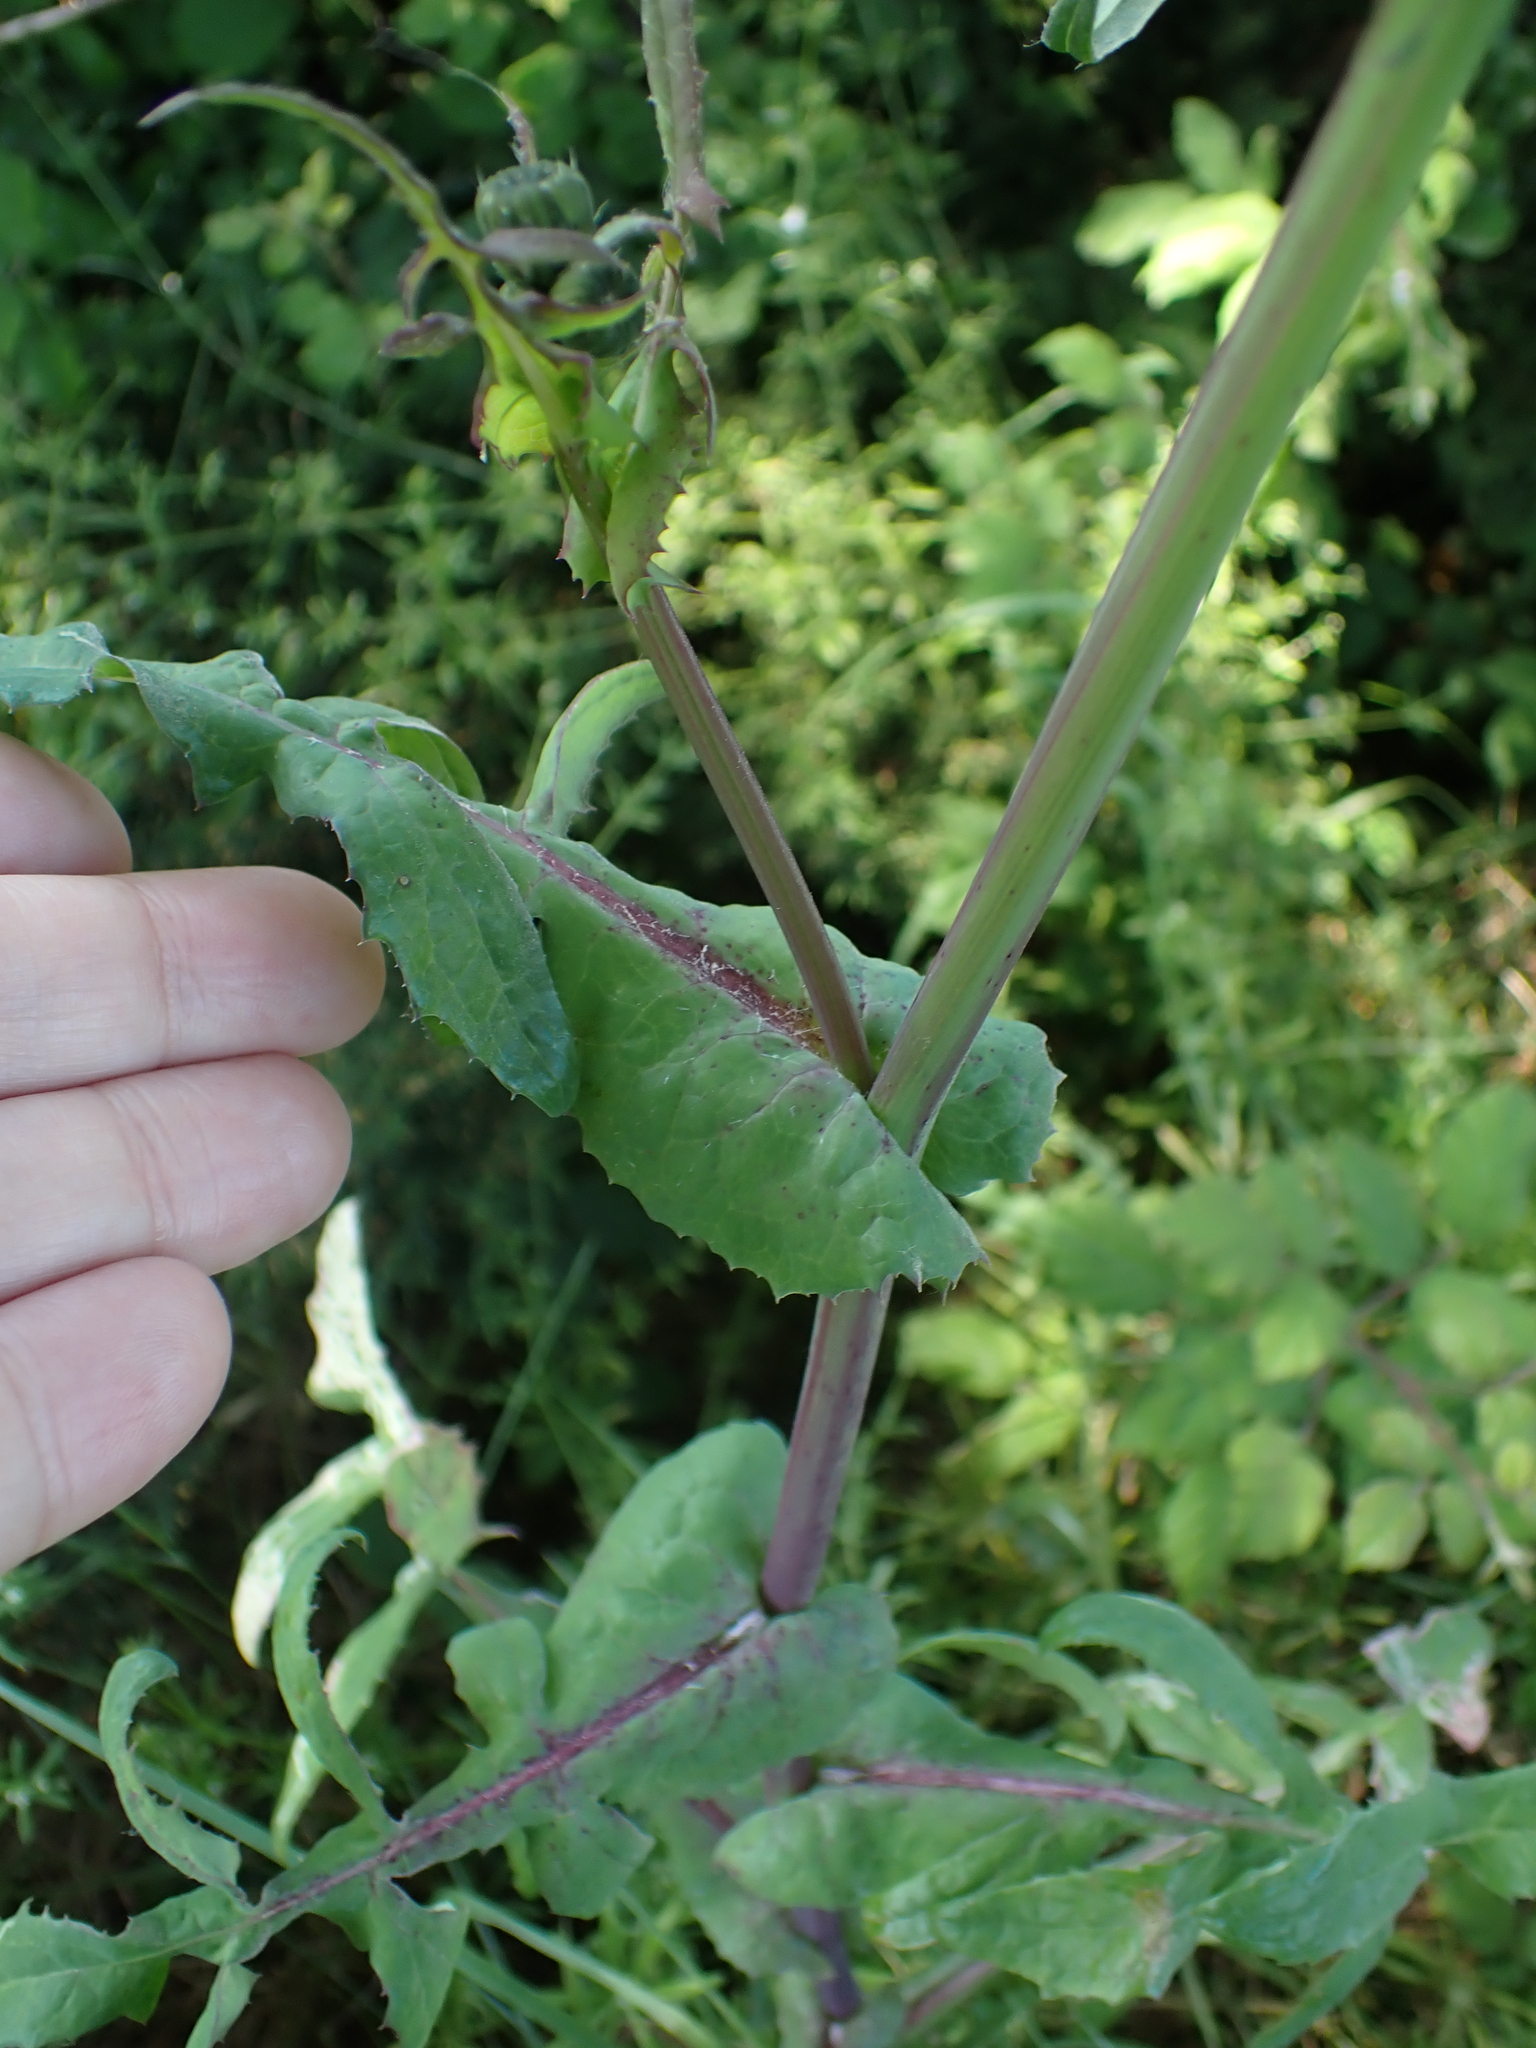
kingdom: Plantae
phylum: Tracheophyta
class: Magnoliopsida
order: Asterales
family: Asteraceae
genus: Sonchus
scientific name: Sonchus oleraceus
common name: Common sowthistle
